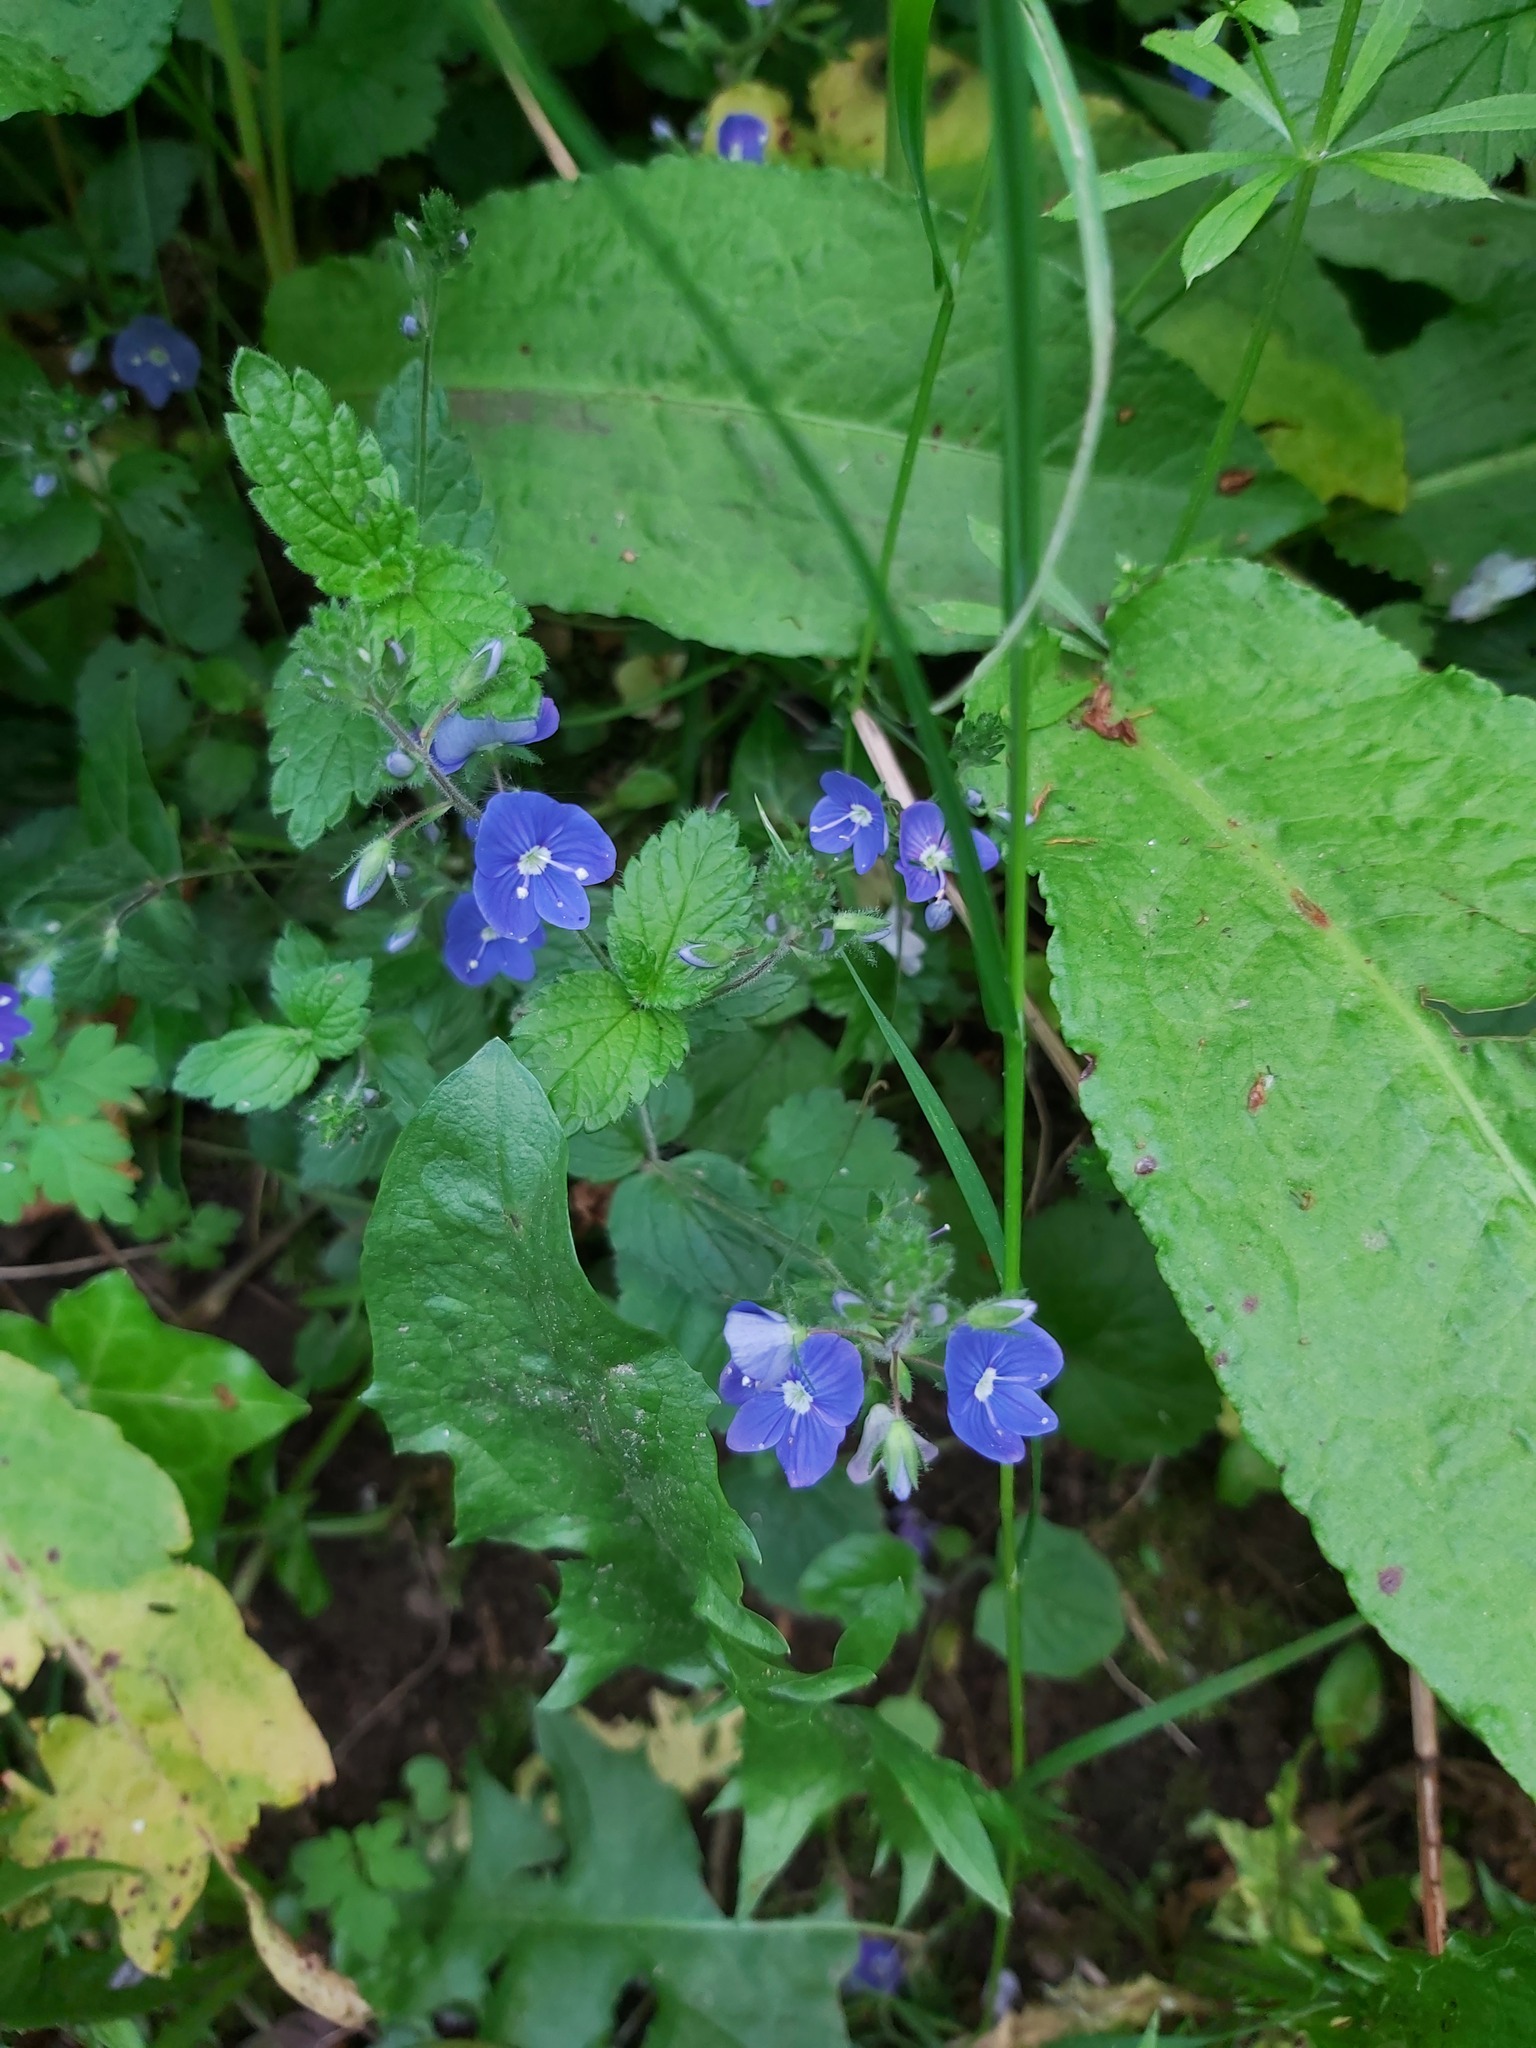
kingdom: Plantae
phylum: Tracheophyta
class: Magnoliopsida
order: Lamiales
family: Plantaginaceae
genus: Veronica
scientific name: Veronica chamaedrys
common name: Germander speedwell
